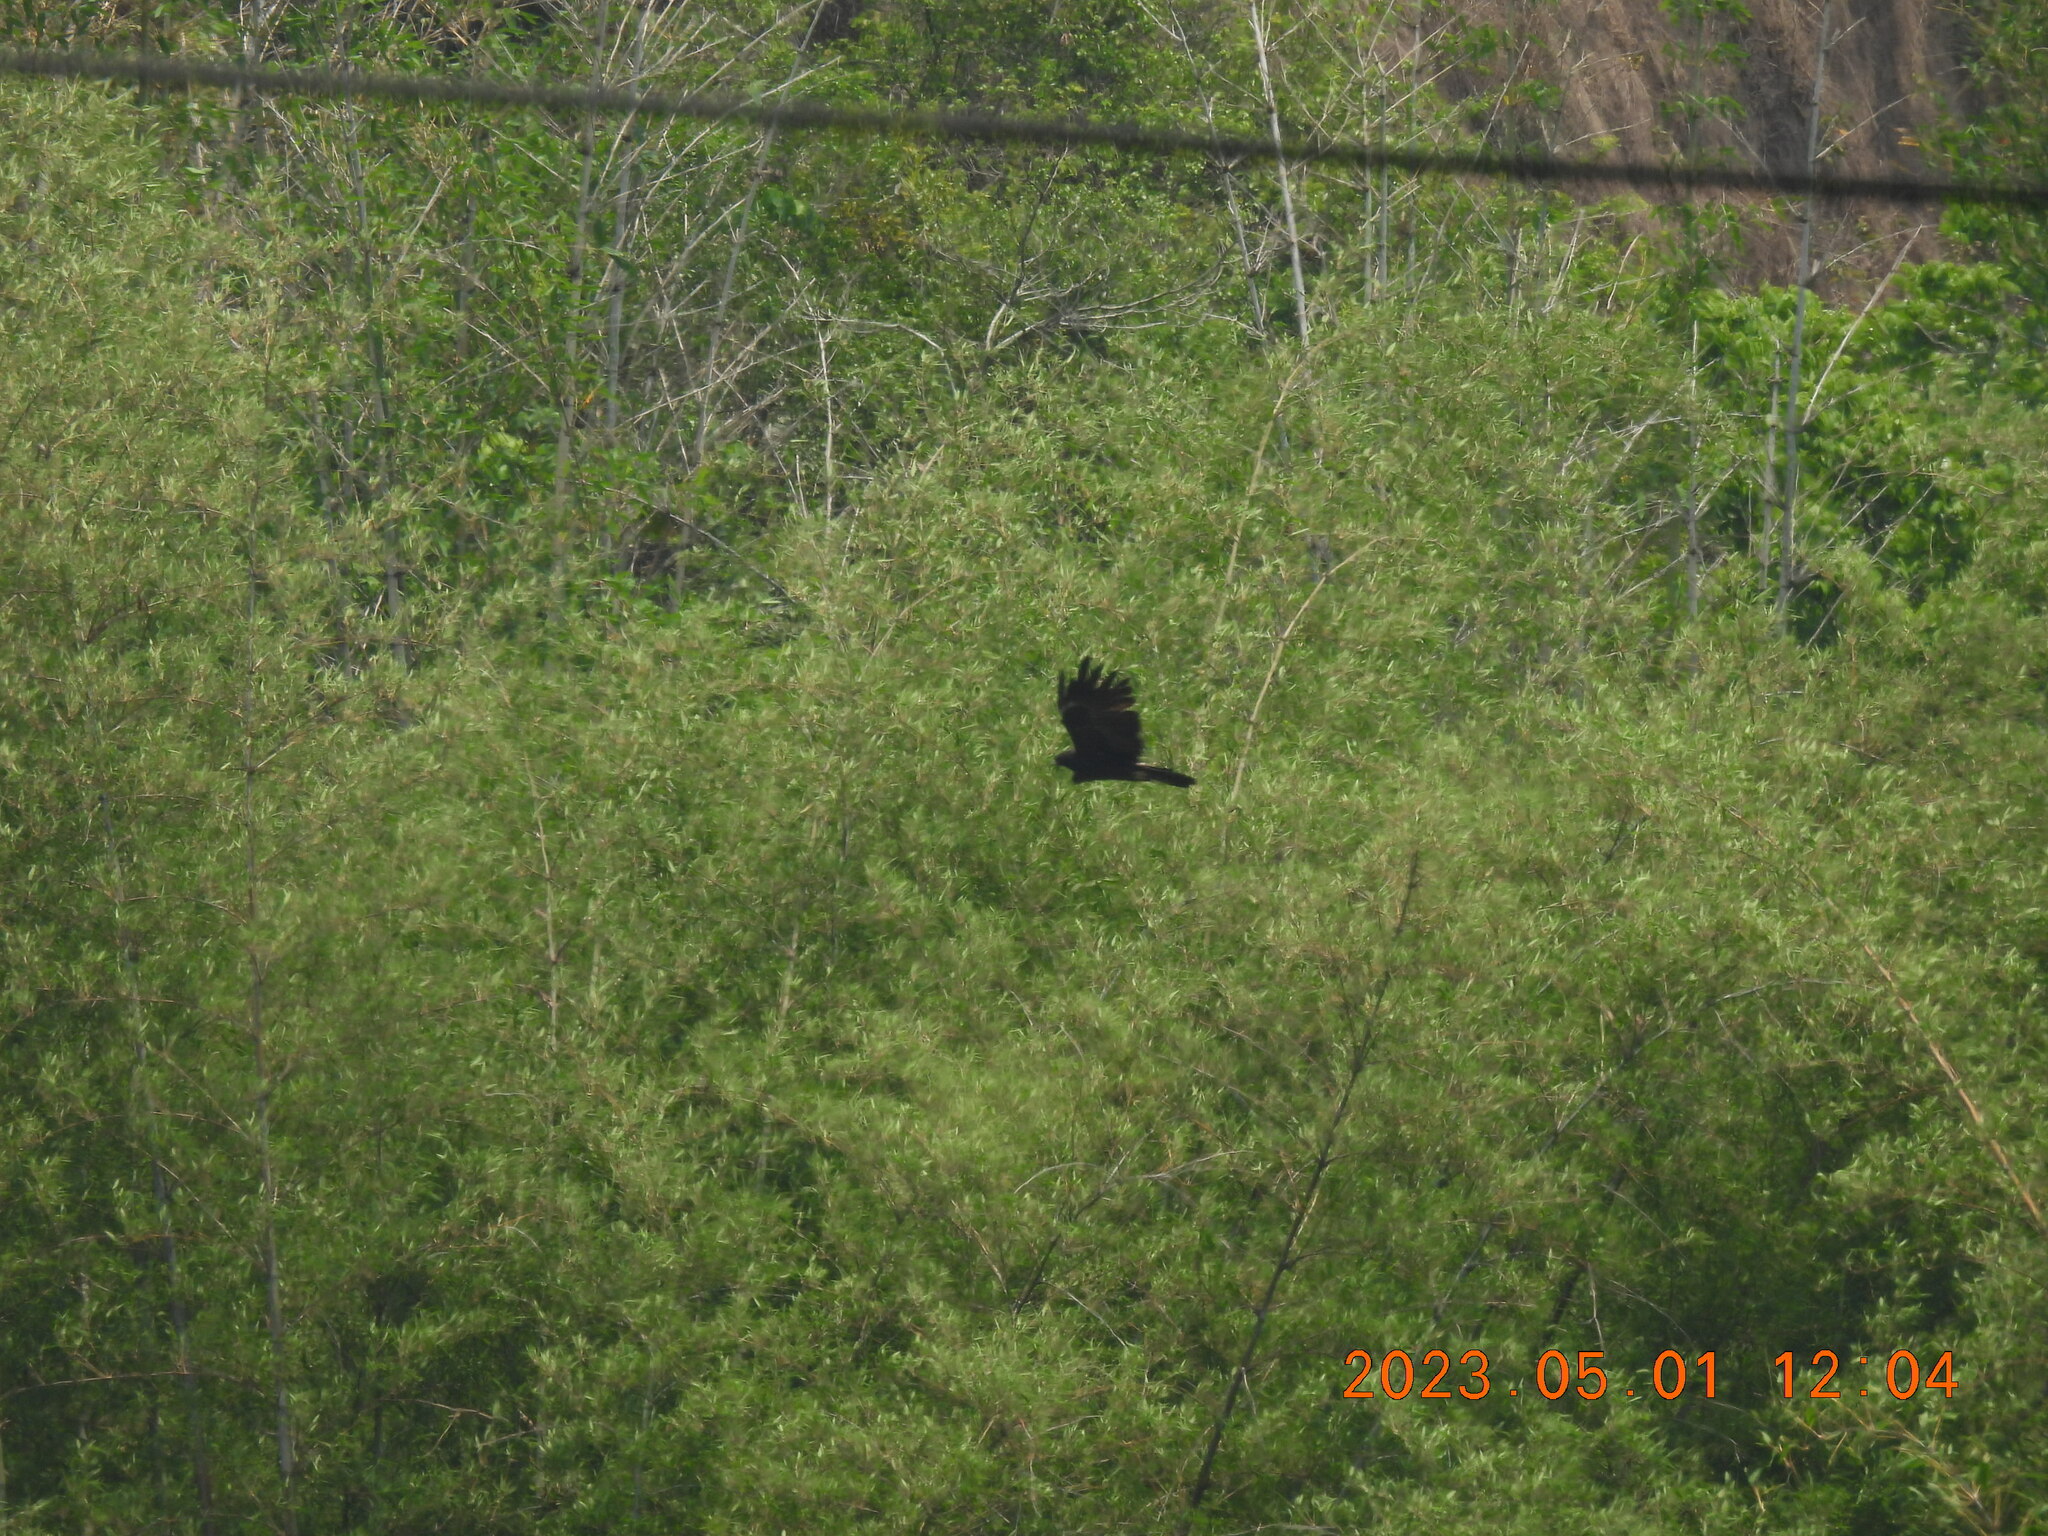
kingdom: Animalia
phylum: Chordata
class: Aves
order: Accipitriformes
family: Accipitridae
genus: Ictinaetus
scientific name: Ictinaetus malayensis
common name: Black eagle
